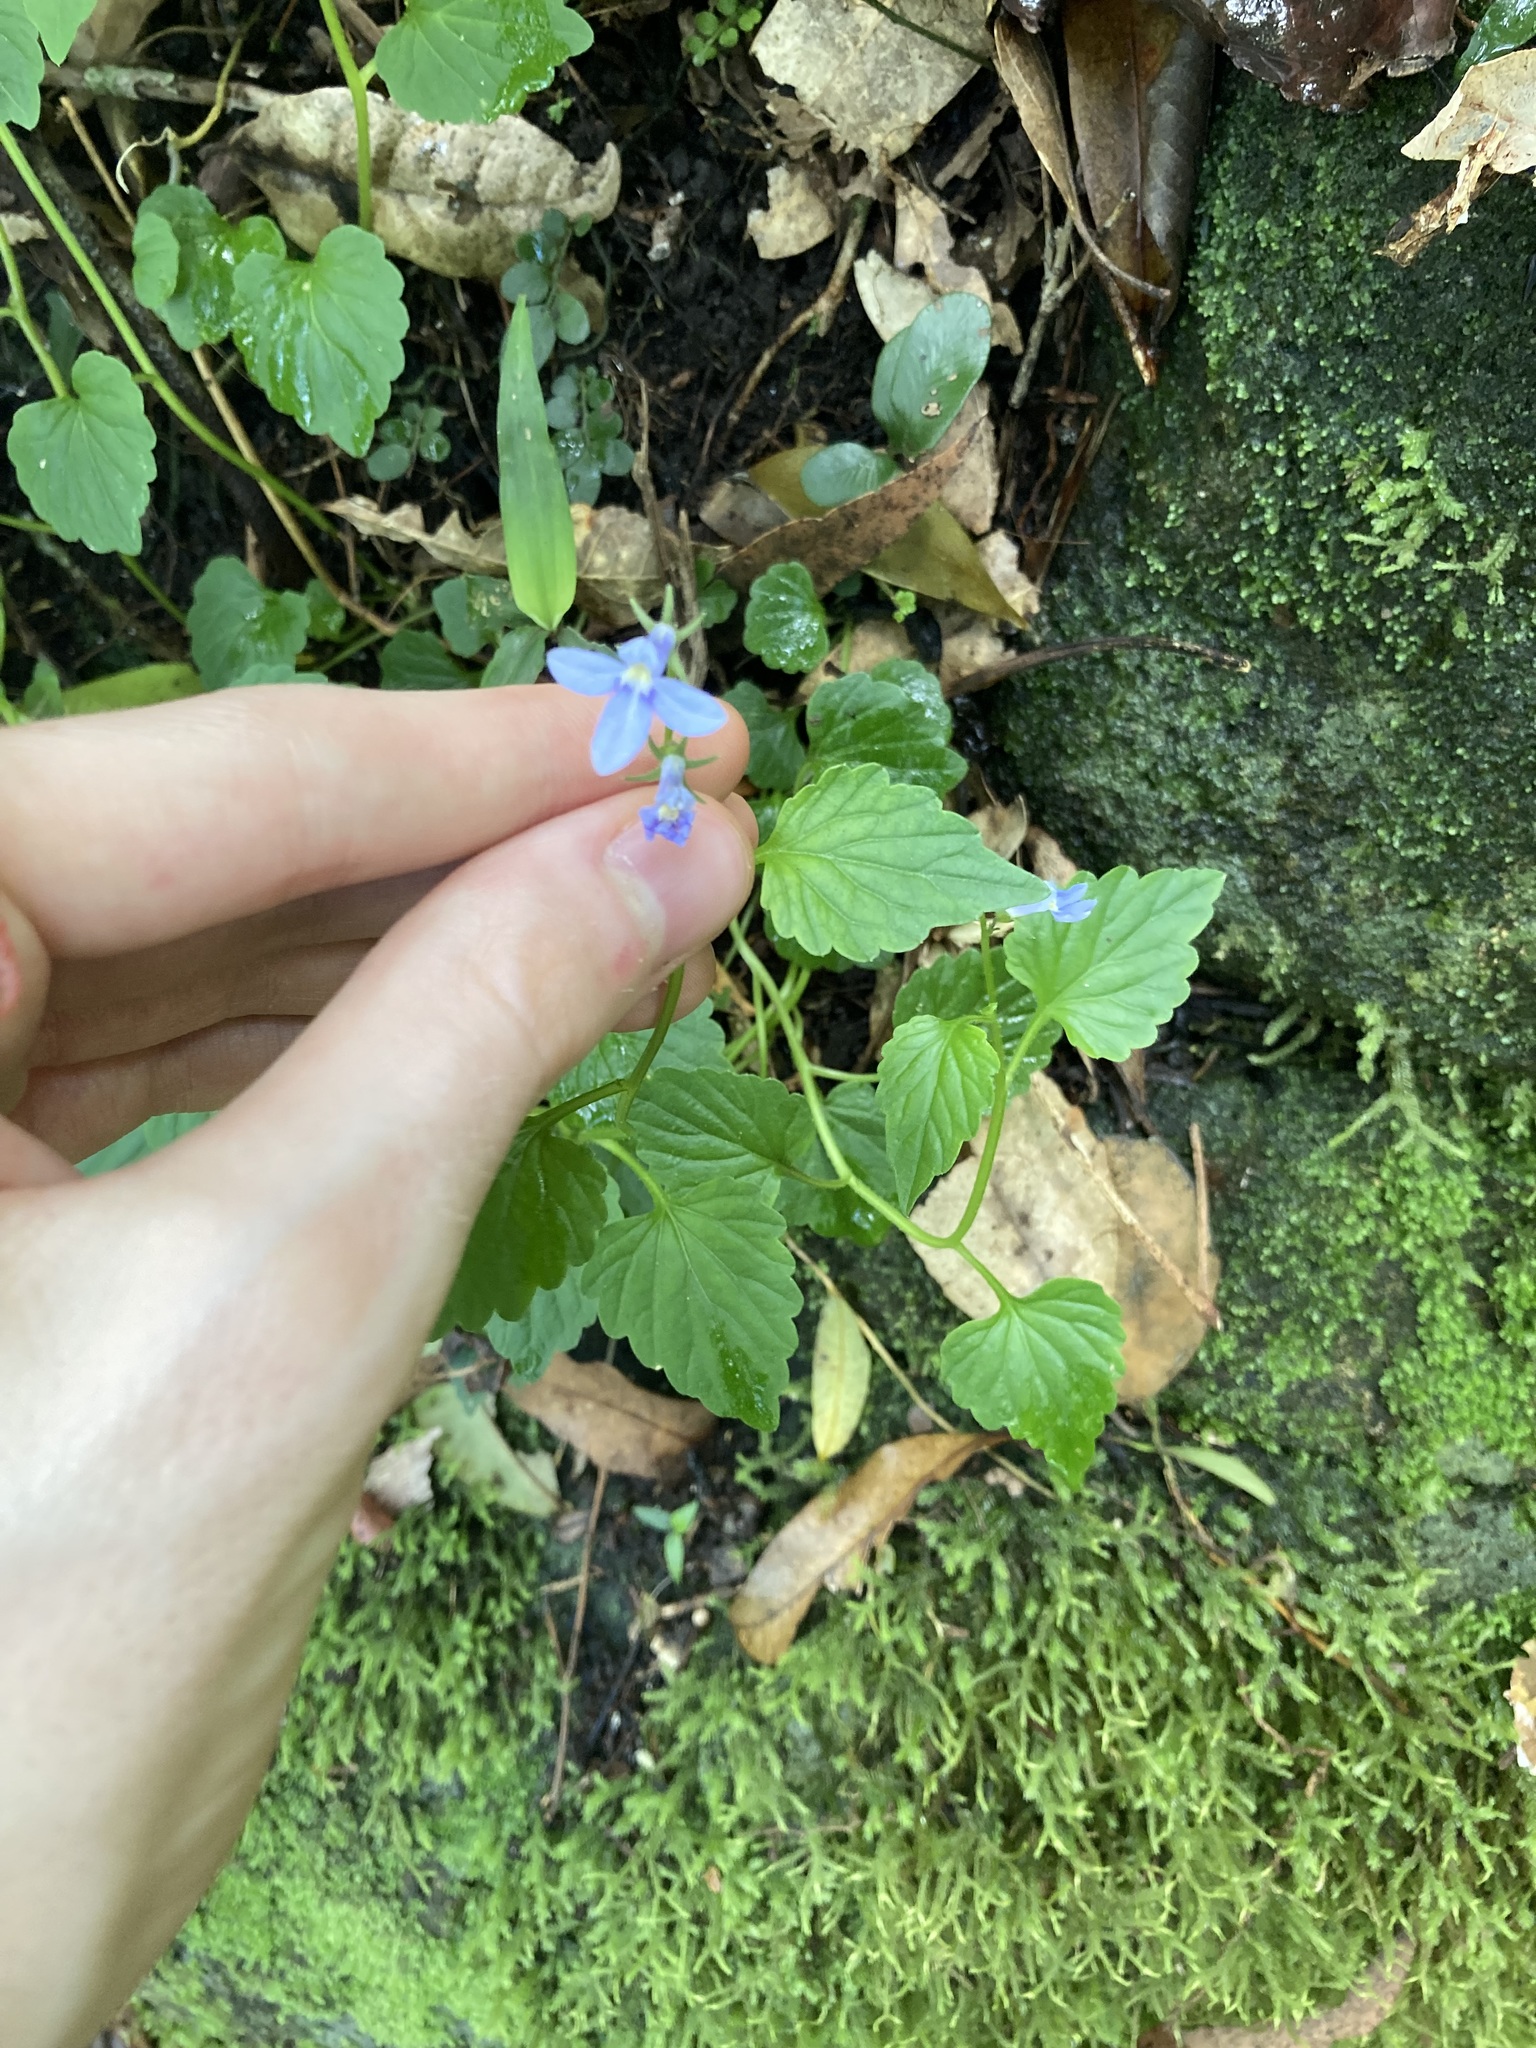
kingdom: Plantae
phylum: Tracheophyta
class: Magnoliopsida
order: Asterales
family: Campanulaceae
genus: Lobelia
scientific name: Lobelia trigonocaulis
